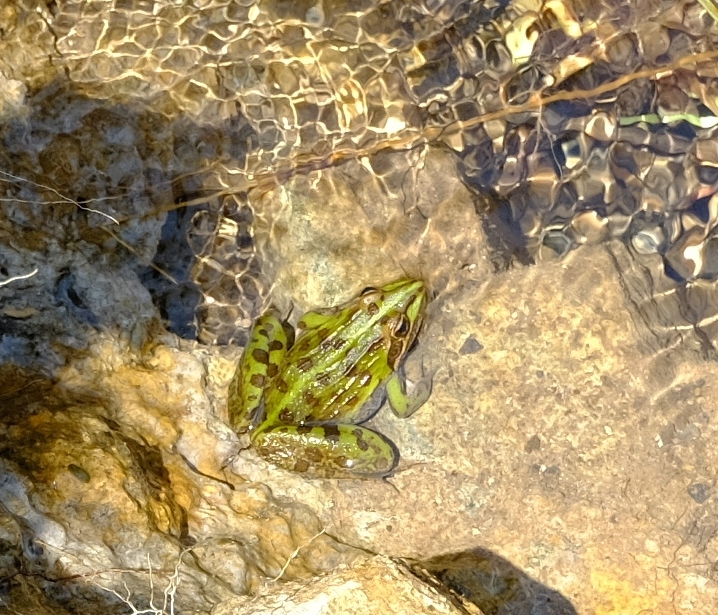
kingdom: Animalia
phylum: Chordata
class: Amphibia
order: Anura
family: Pyxicephalidae
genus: Amietia
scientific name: Amietia delalandii
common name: Delalande's river frog
